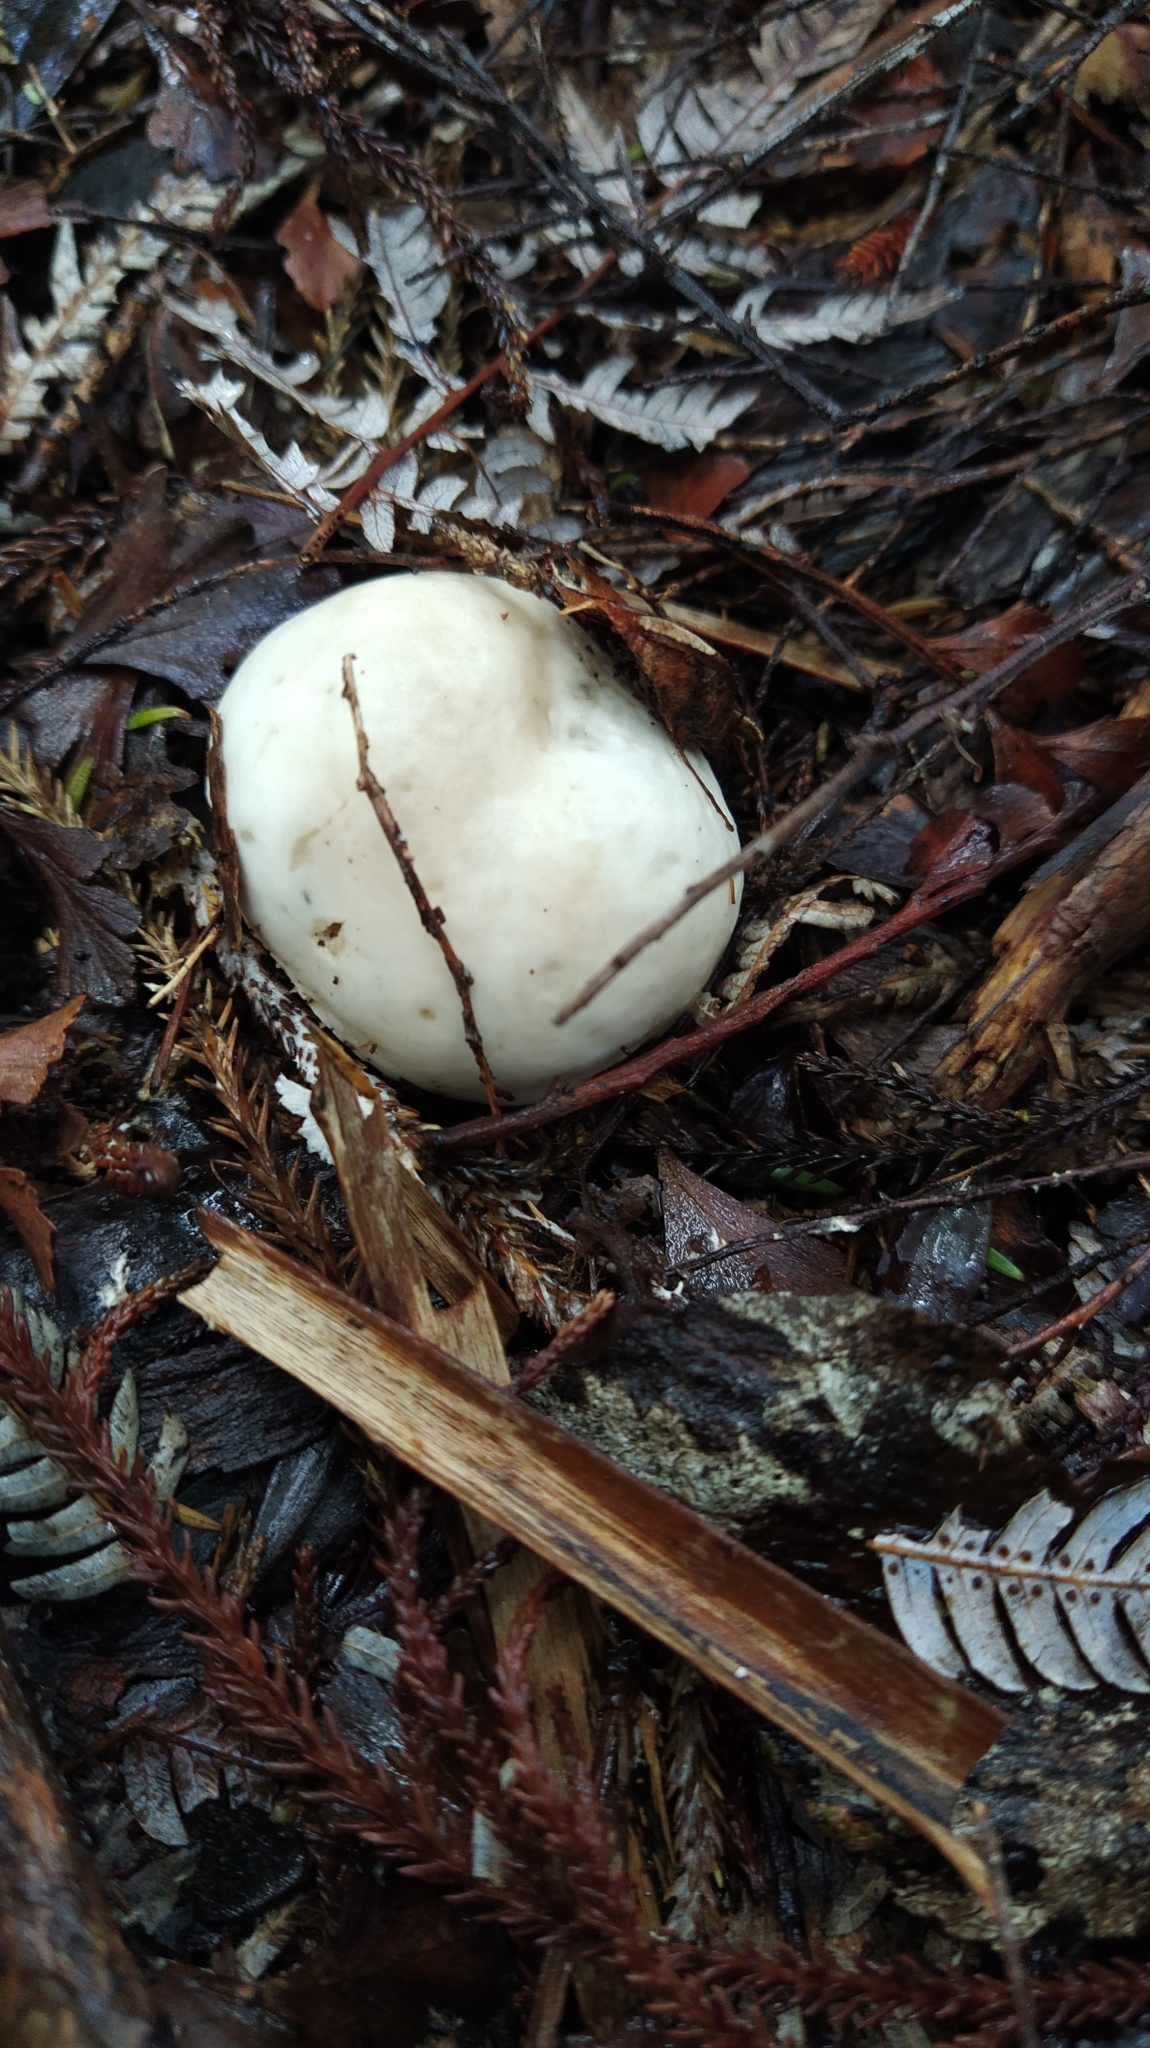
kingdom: Fungi
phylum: Basidiomycota
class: Agaricomycetes
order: Boletales
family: Boletaceae
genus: Boletus
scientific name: Boletus semigastroideus
